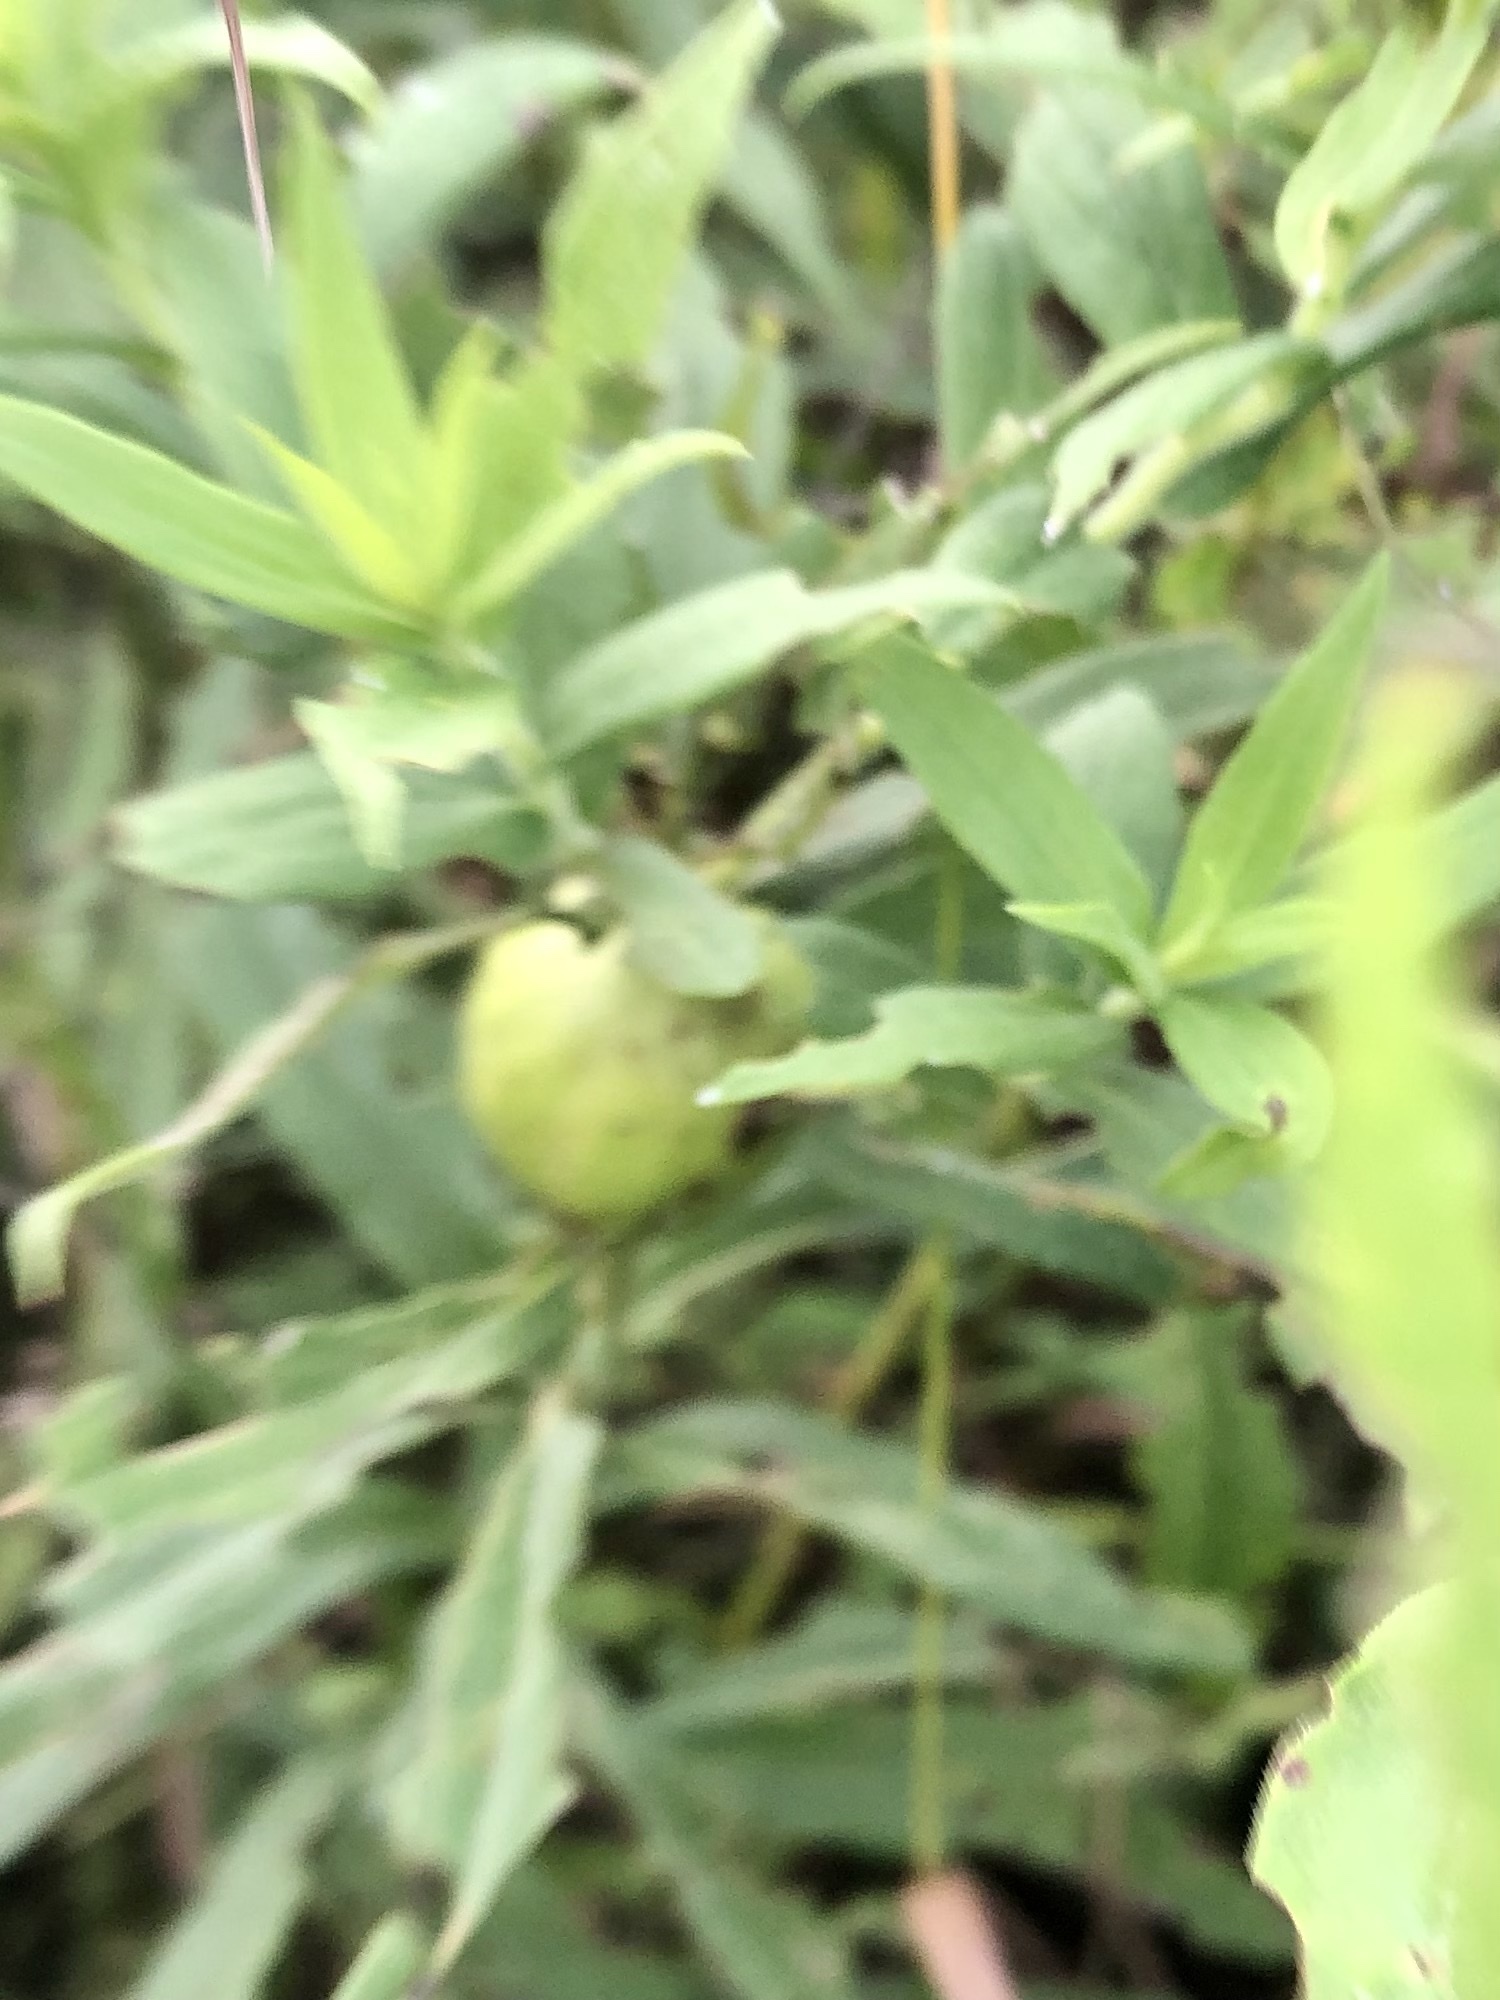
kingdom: Animalia
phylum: Arthropoda
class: Insecta
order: Diptera
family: Tephritidae
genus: Eurosta
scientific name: Eurosta solidaginis
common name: Goldenrod gall fly
